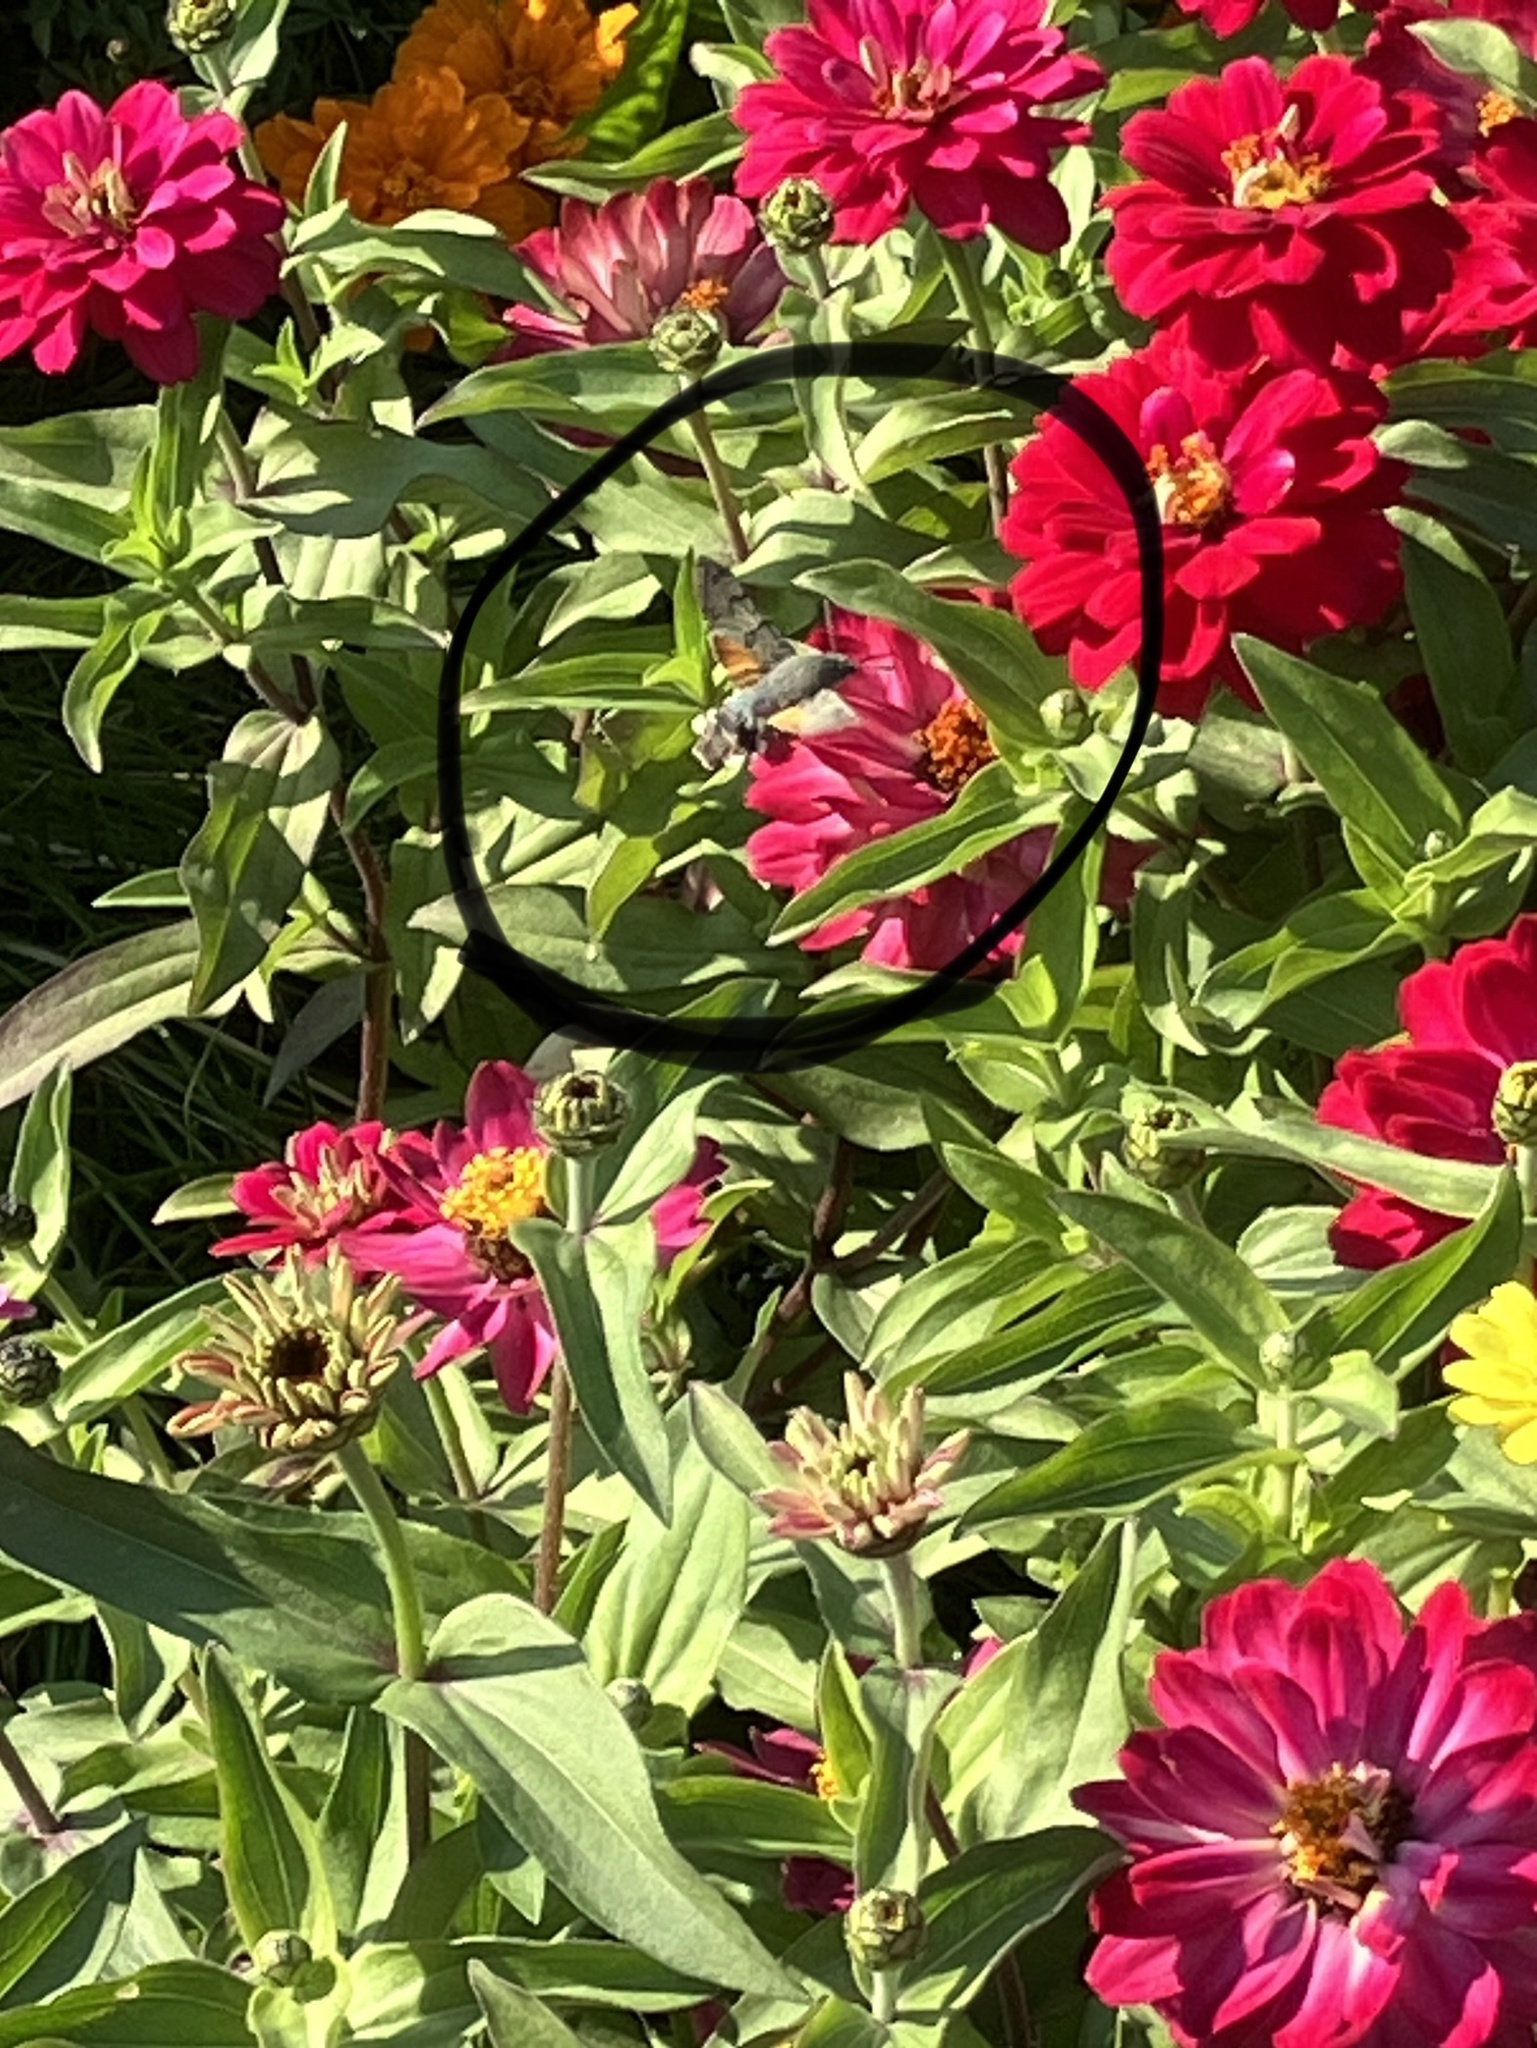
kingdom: Animalia
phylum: Arthropoda
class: Insecta
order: Lepidoptera
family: Sphingidae
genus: Macroglossum
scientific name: Macroglossum stellatarum
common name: Humming-bird hawk-moth
